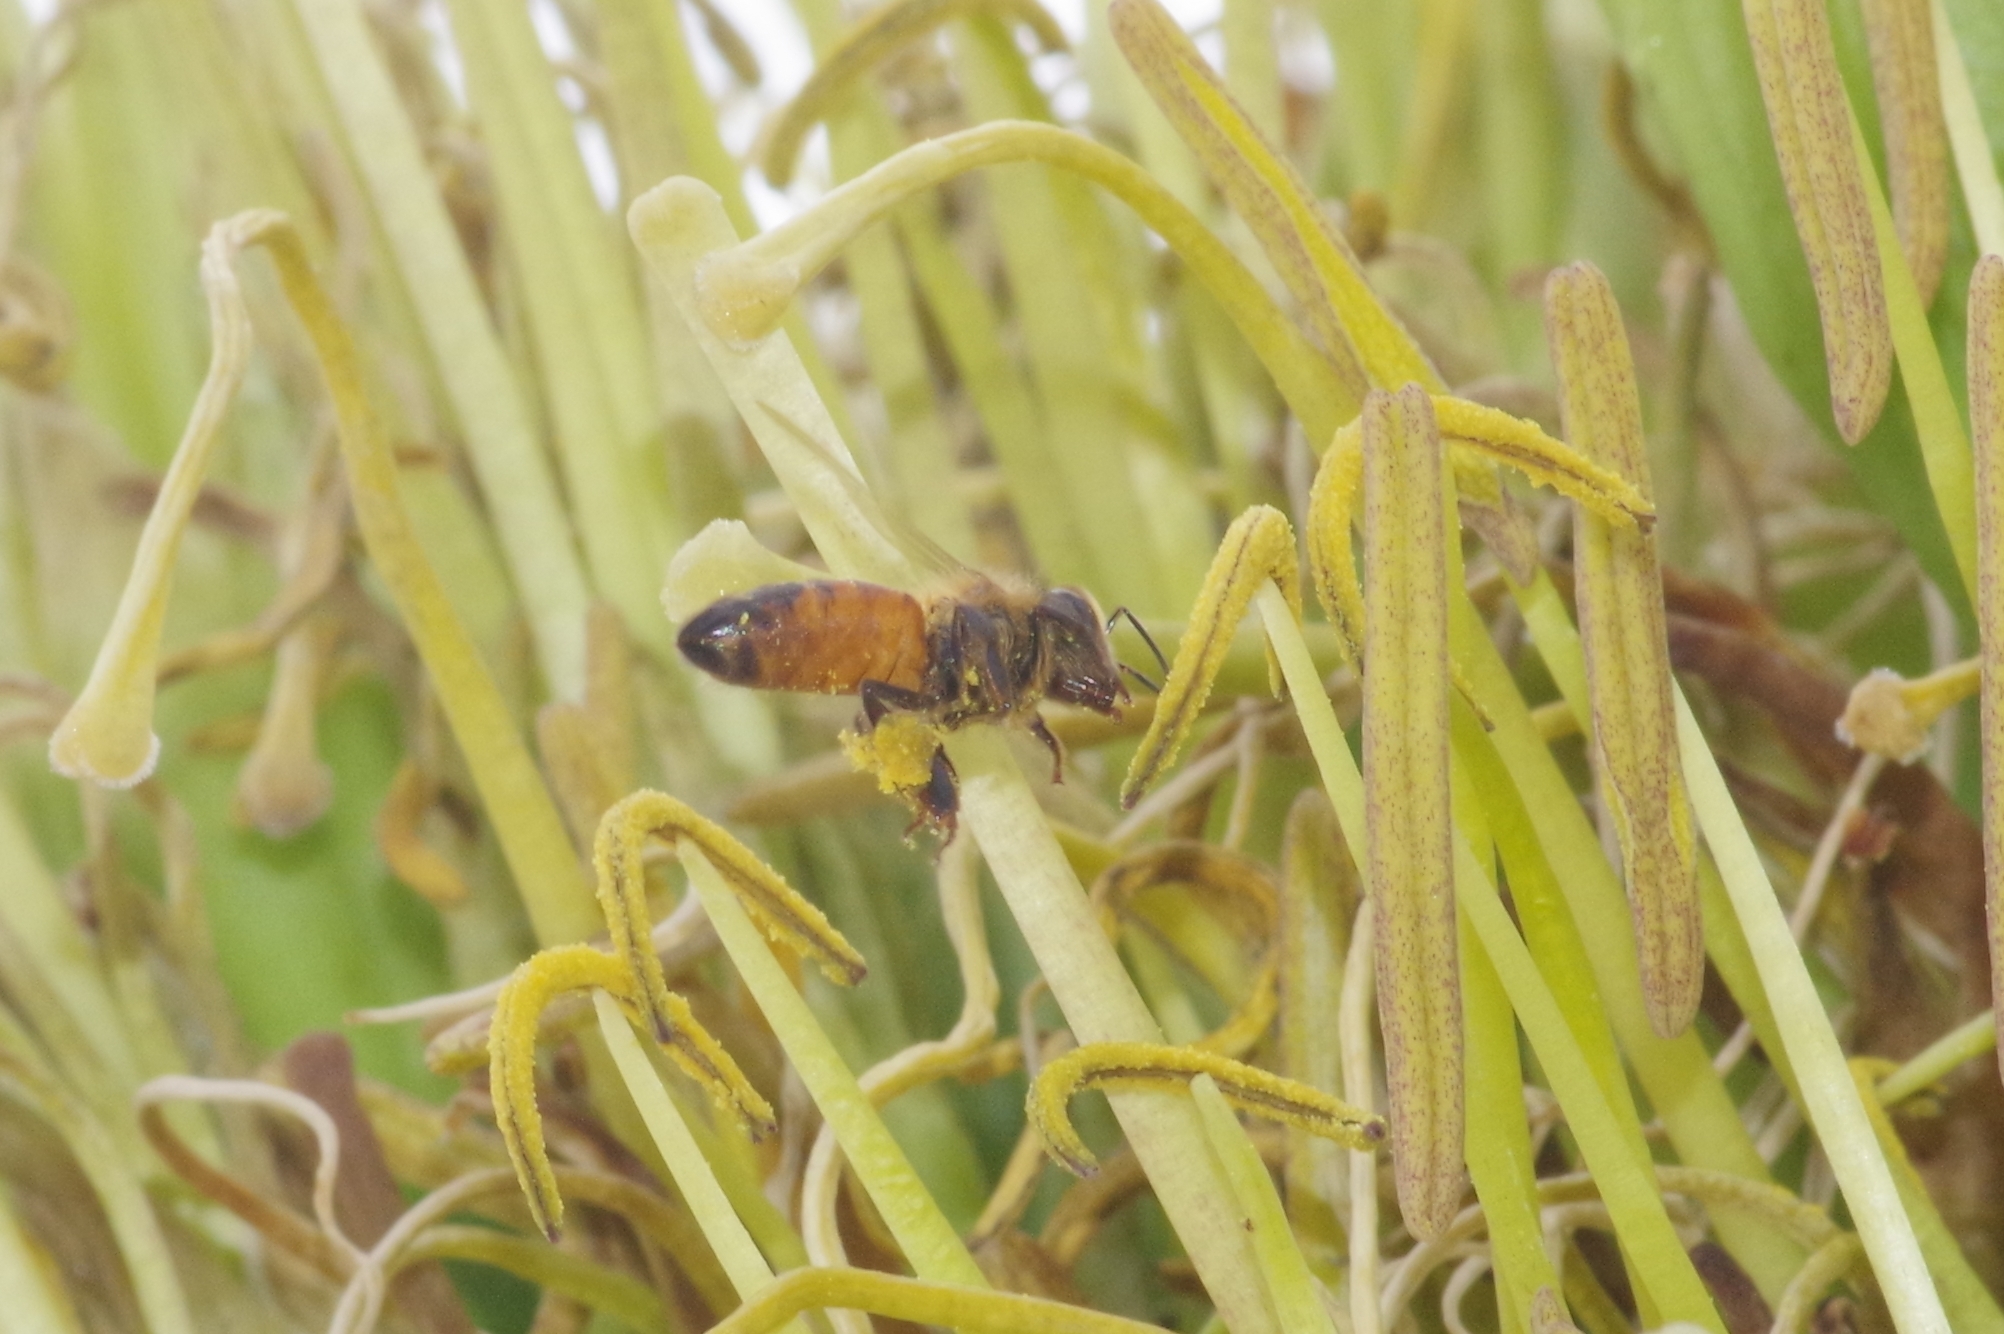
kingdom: Animalia
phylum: Arthropoda
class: Insecta
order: Hymenoptera
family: Apidae
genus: Apis
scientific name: Apis mellifera
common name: Honey bee
